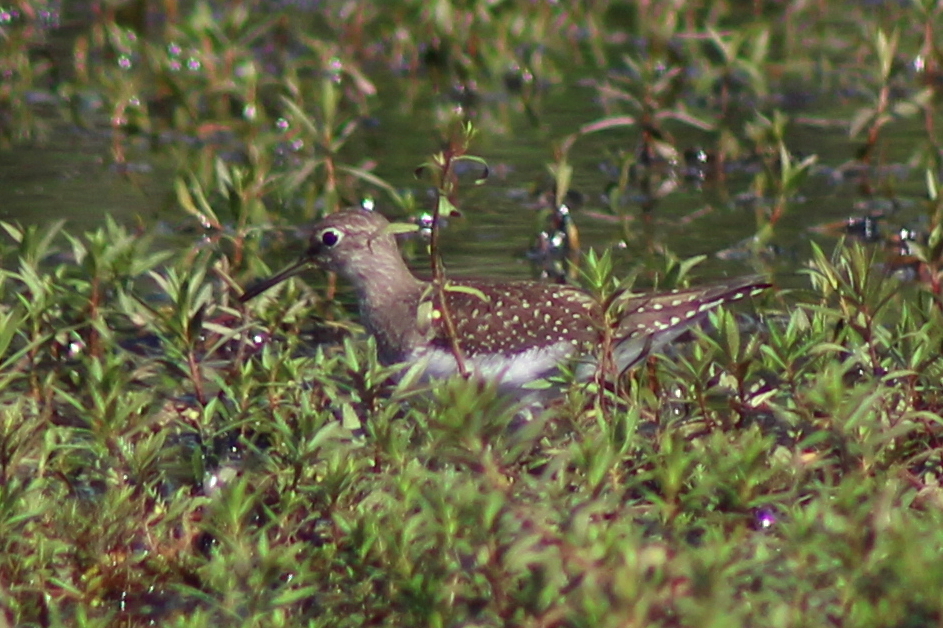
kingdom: Animalia
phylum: Chordata
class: Aves
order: Charadriiformes
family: Scolopacidae
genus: Tringa
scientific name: Tringa solitaria
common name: Solitary sandpiper
